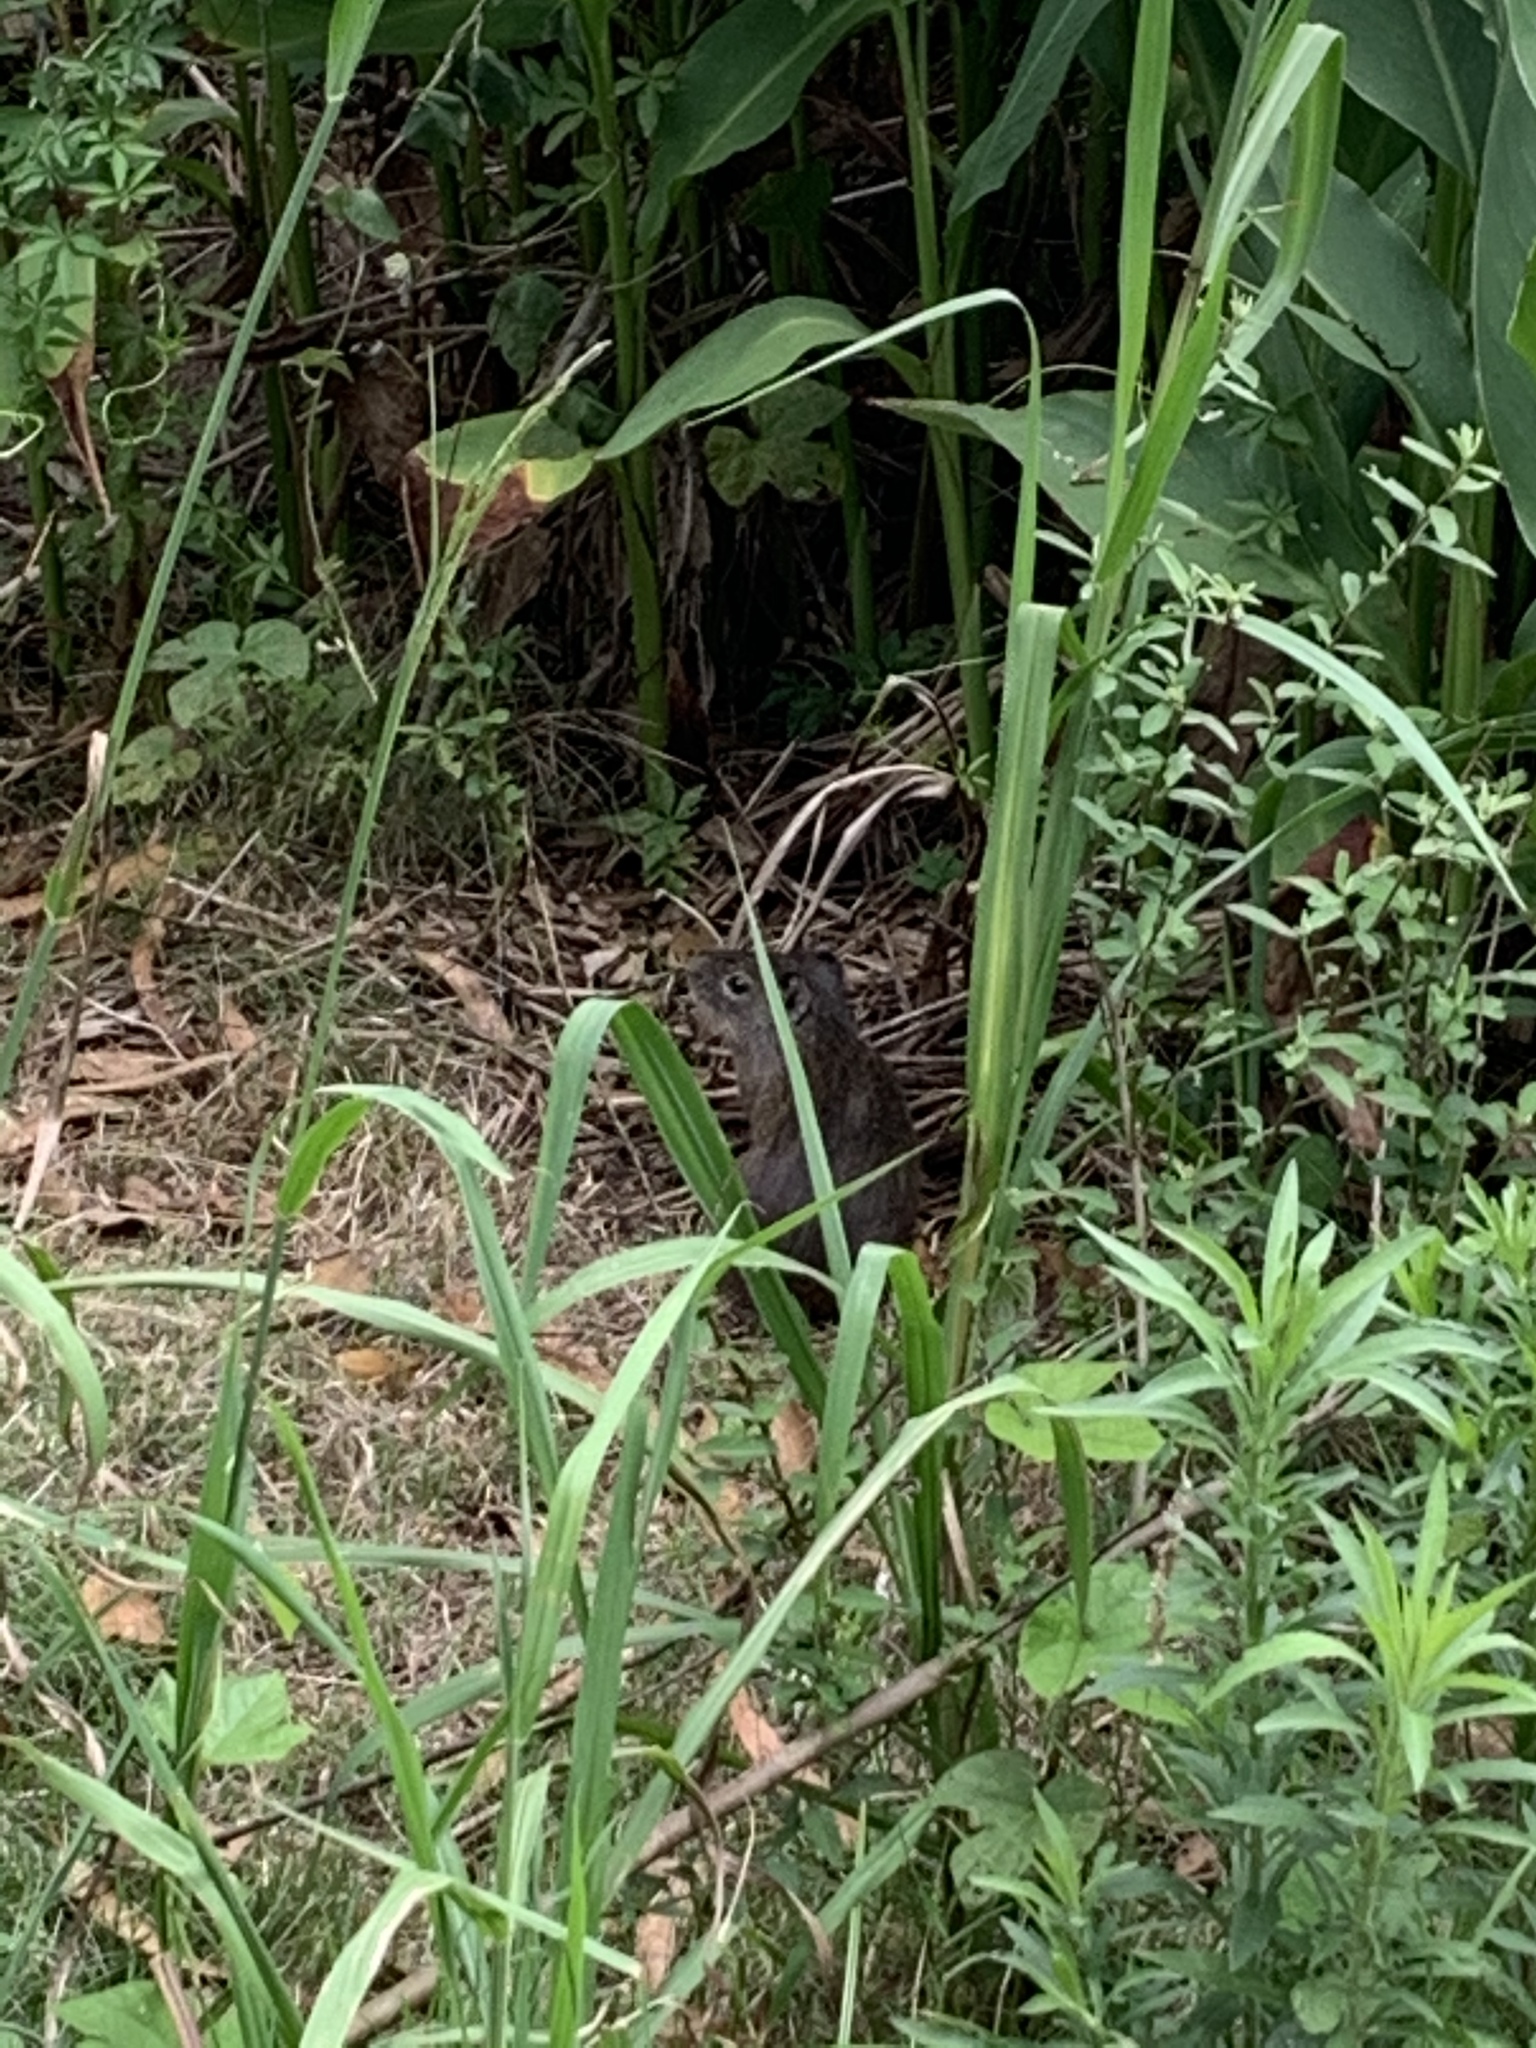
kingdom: Animalia
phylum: Chordata
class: Mammalia
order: Rodentia
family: Caviidae
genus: Cavia
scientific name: Cavia aperea
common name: Brazilian guinea pig
